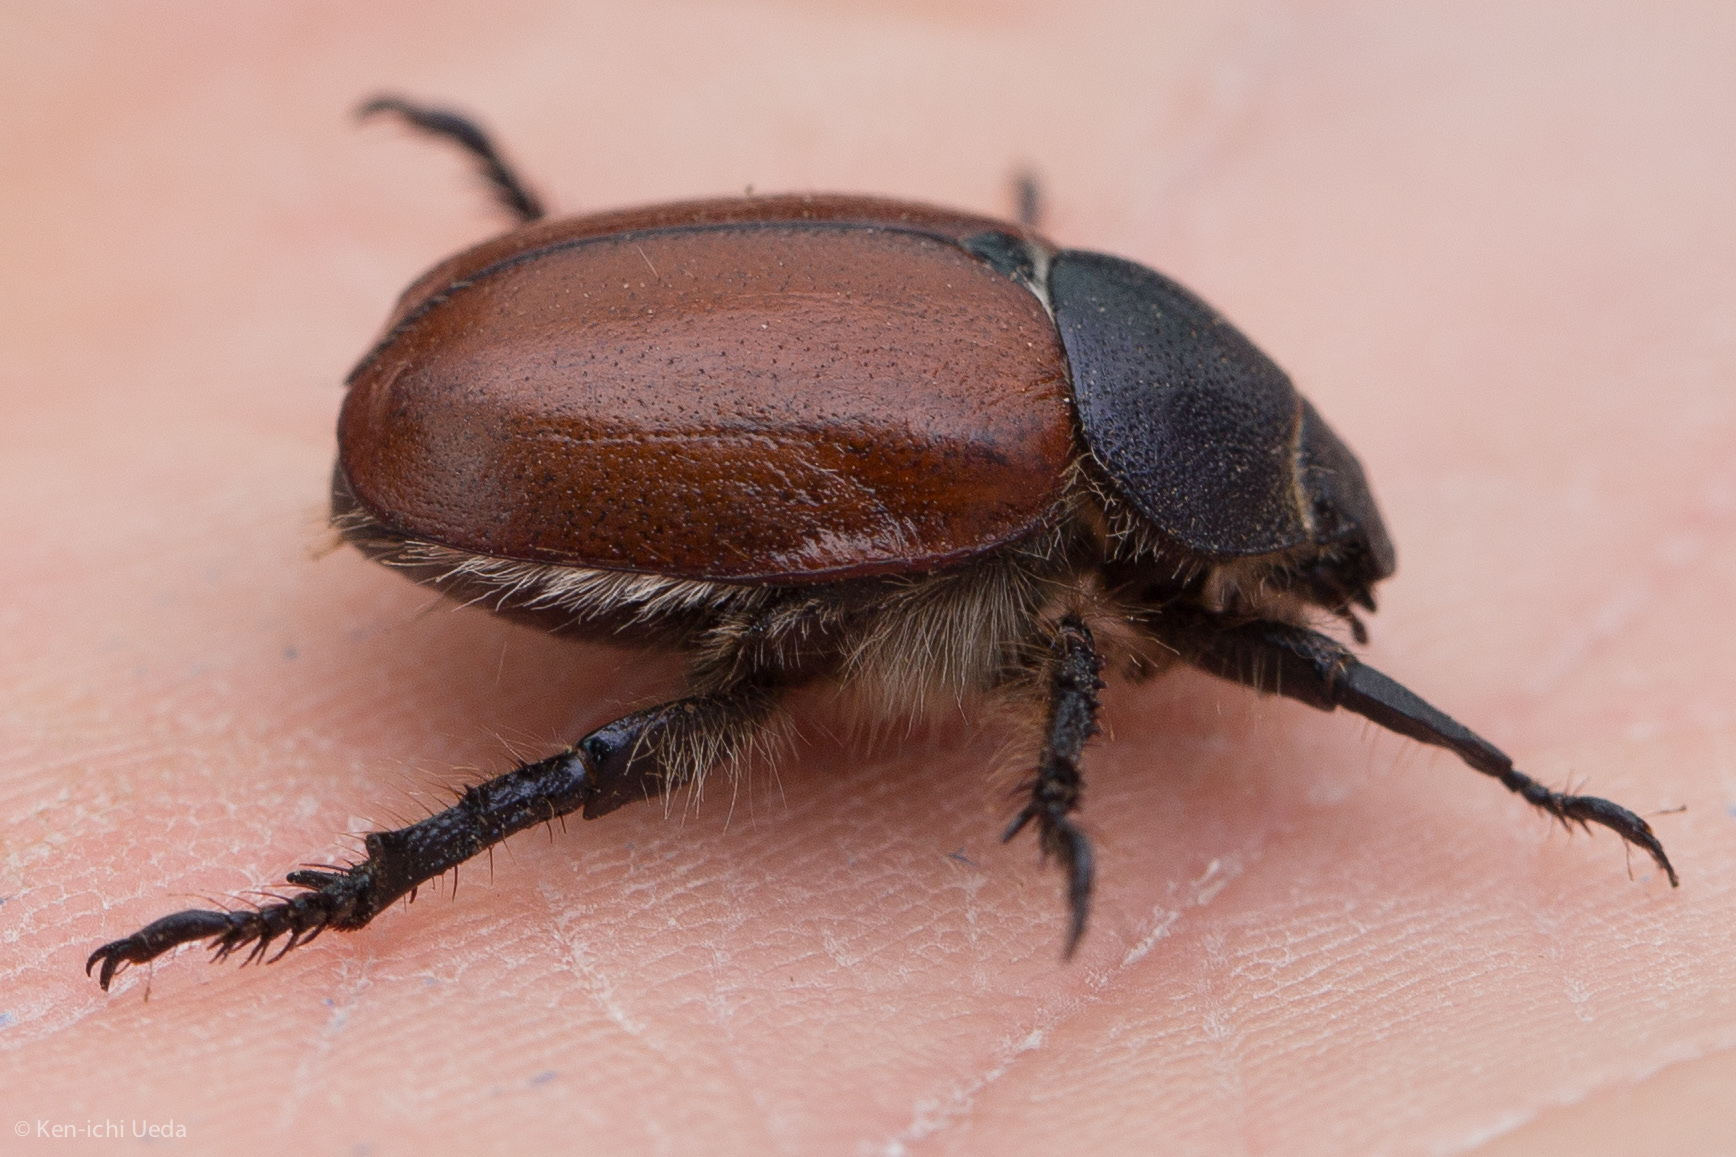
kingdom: Animalia
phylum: Arthropoda
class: Insecta
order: Coleoptera
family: Scarabaeidae
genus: Paracotalpa
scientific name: Paracotalpa ursina
